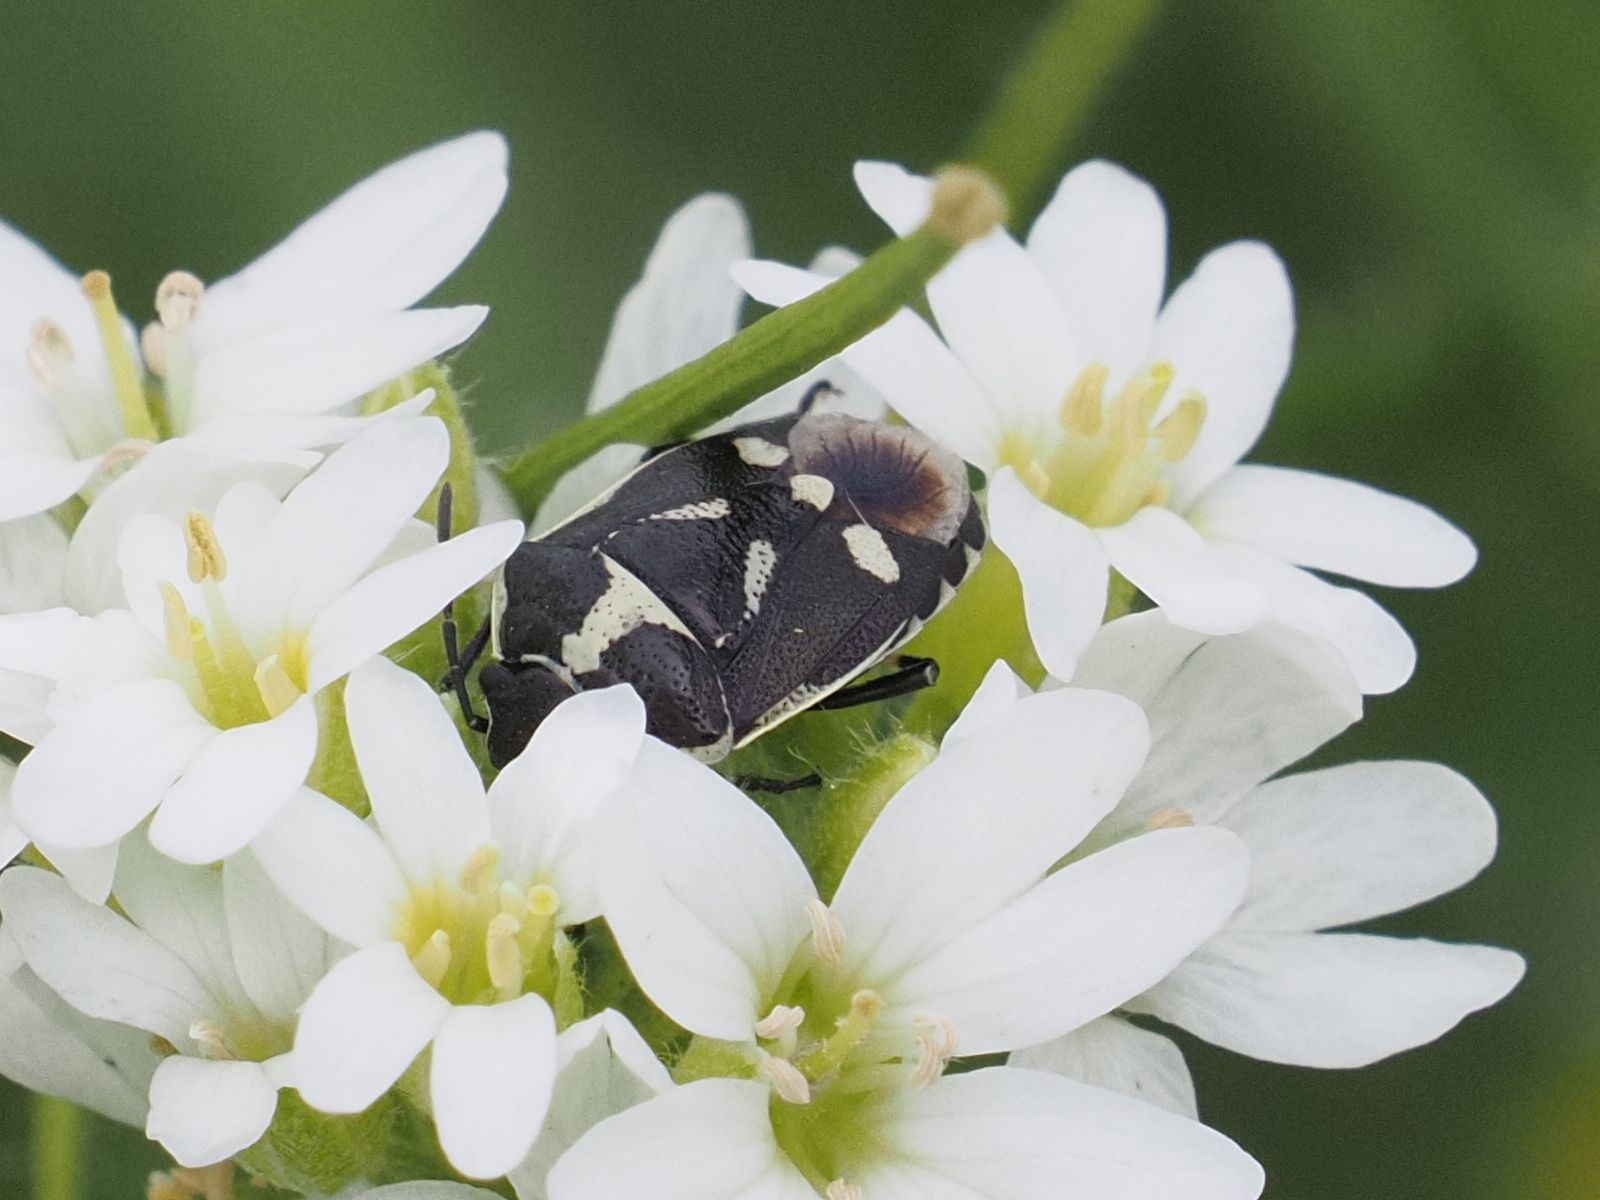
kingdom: Animalia
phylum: Arthropoda
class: Insecta
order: Hemiptera
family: Pentatomidae
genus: Eurydema
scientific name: Eurydema oleracea
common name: Cabbage bug
